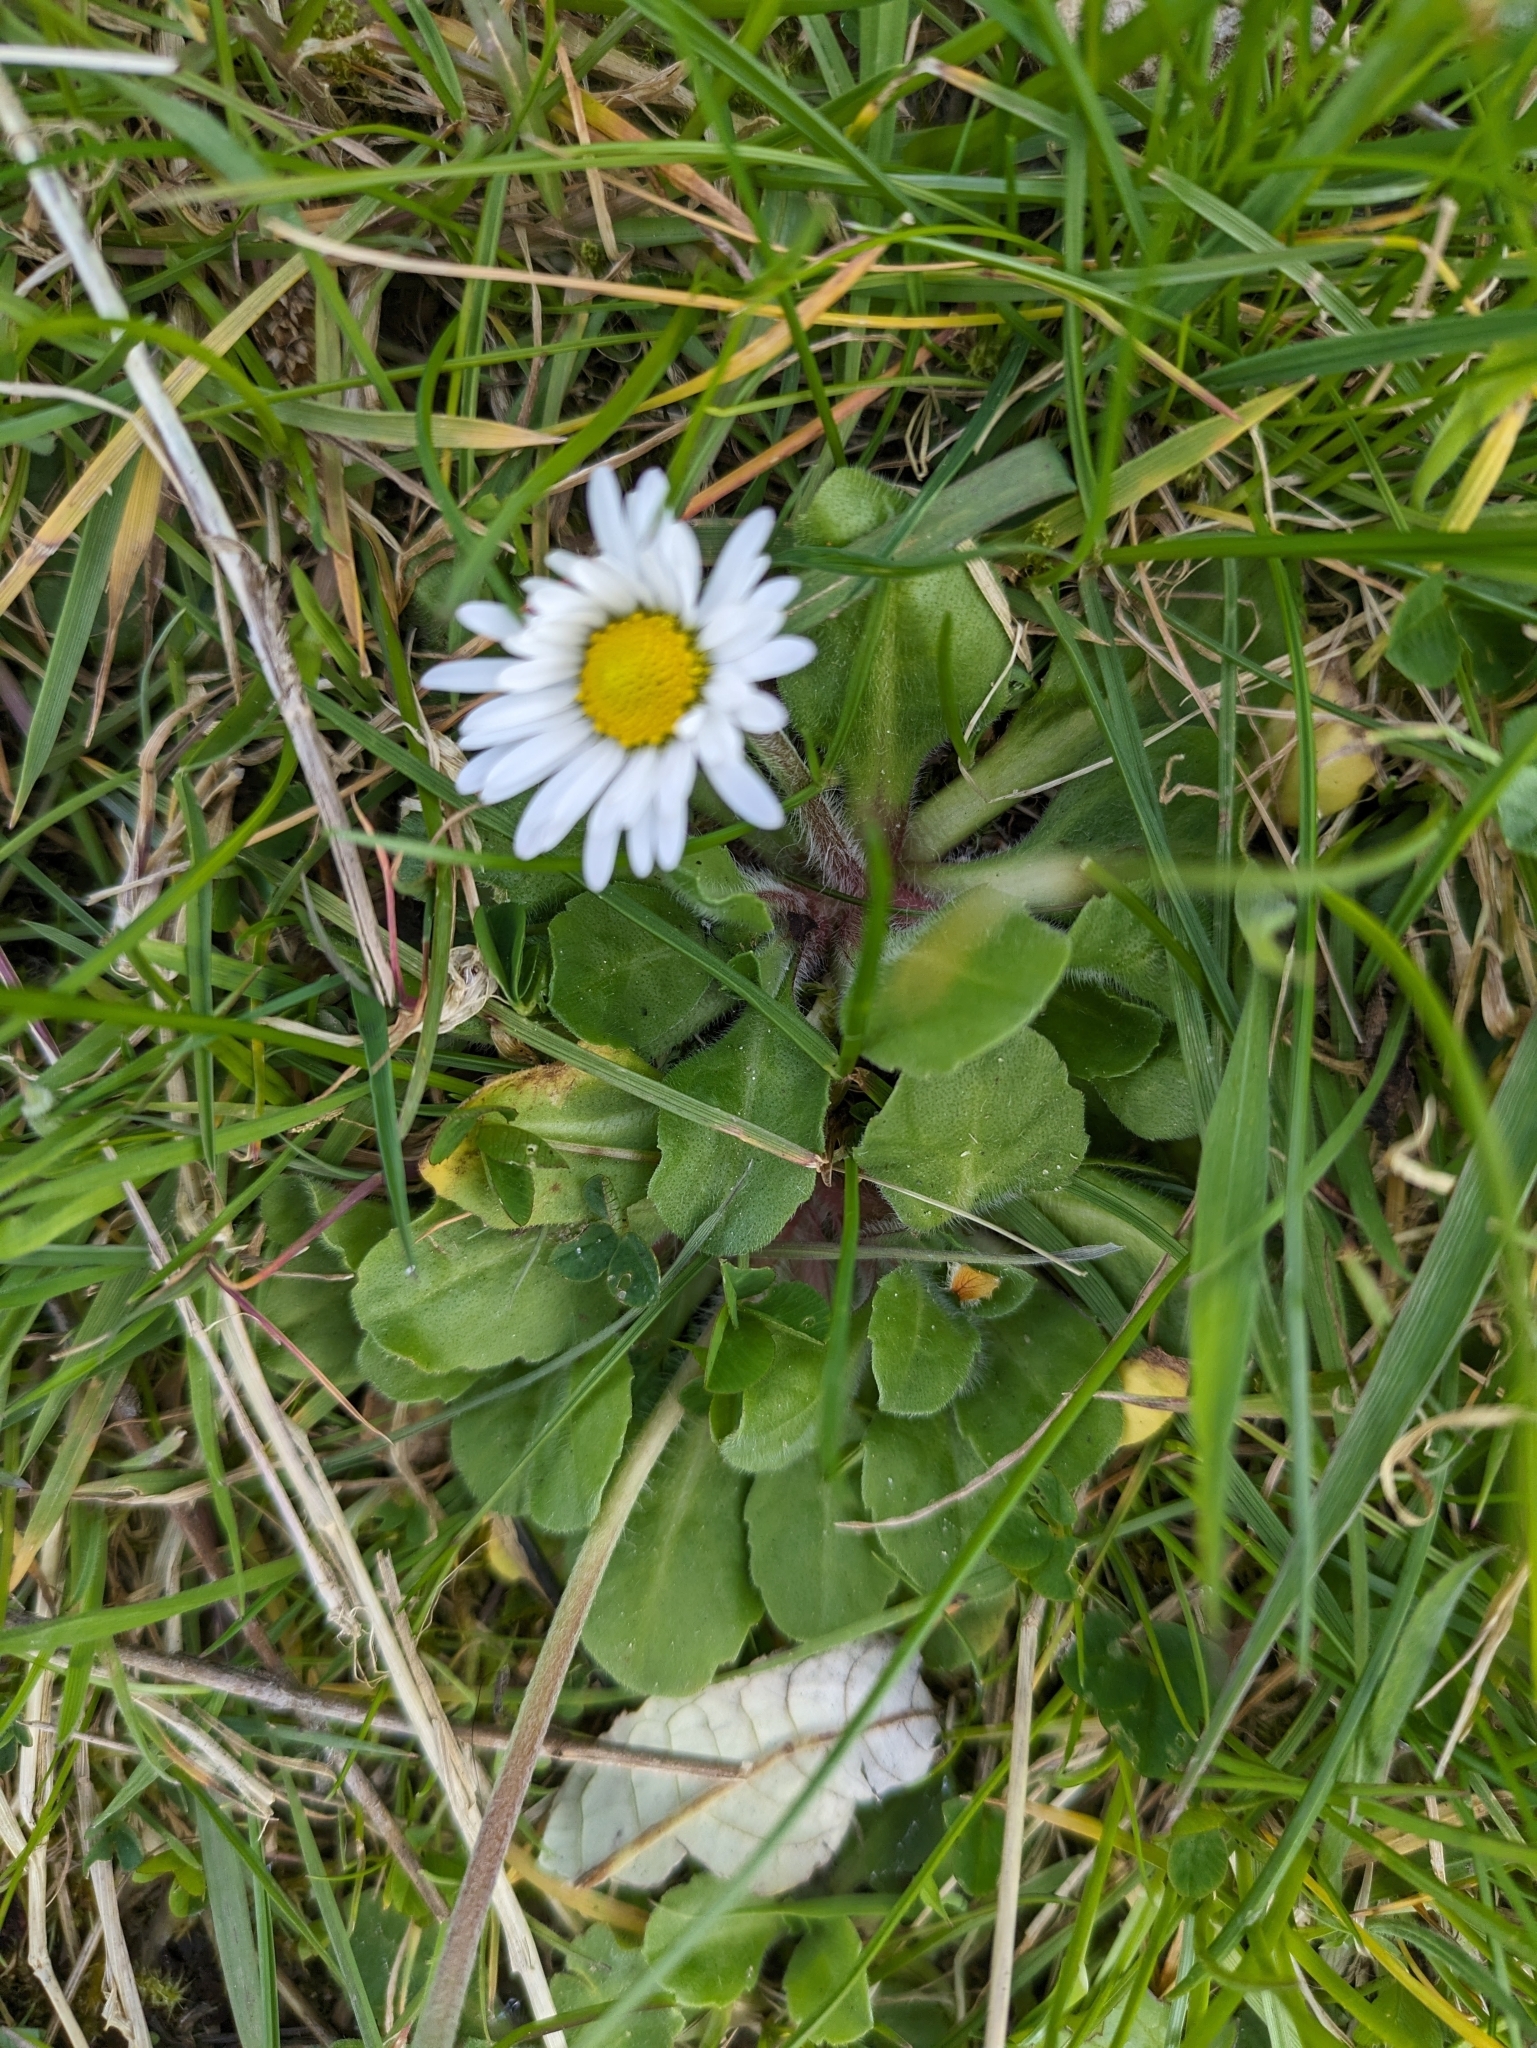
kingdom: Plantae
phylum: Tracheophyta
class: Magnoliopsida
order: Asterales
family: Asteraceae
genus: Bellis
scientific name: Bellis perennis
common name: Lawndaisy
